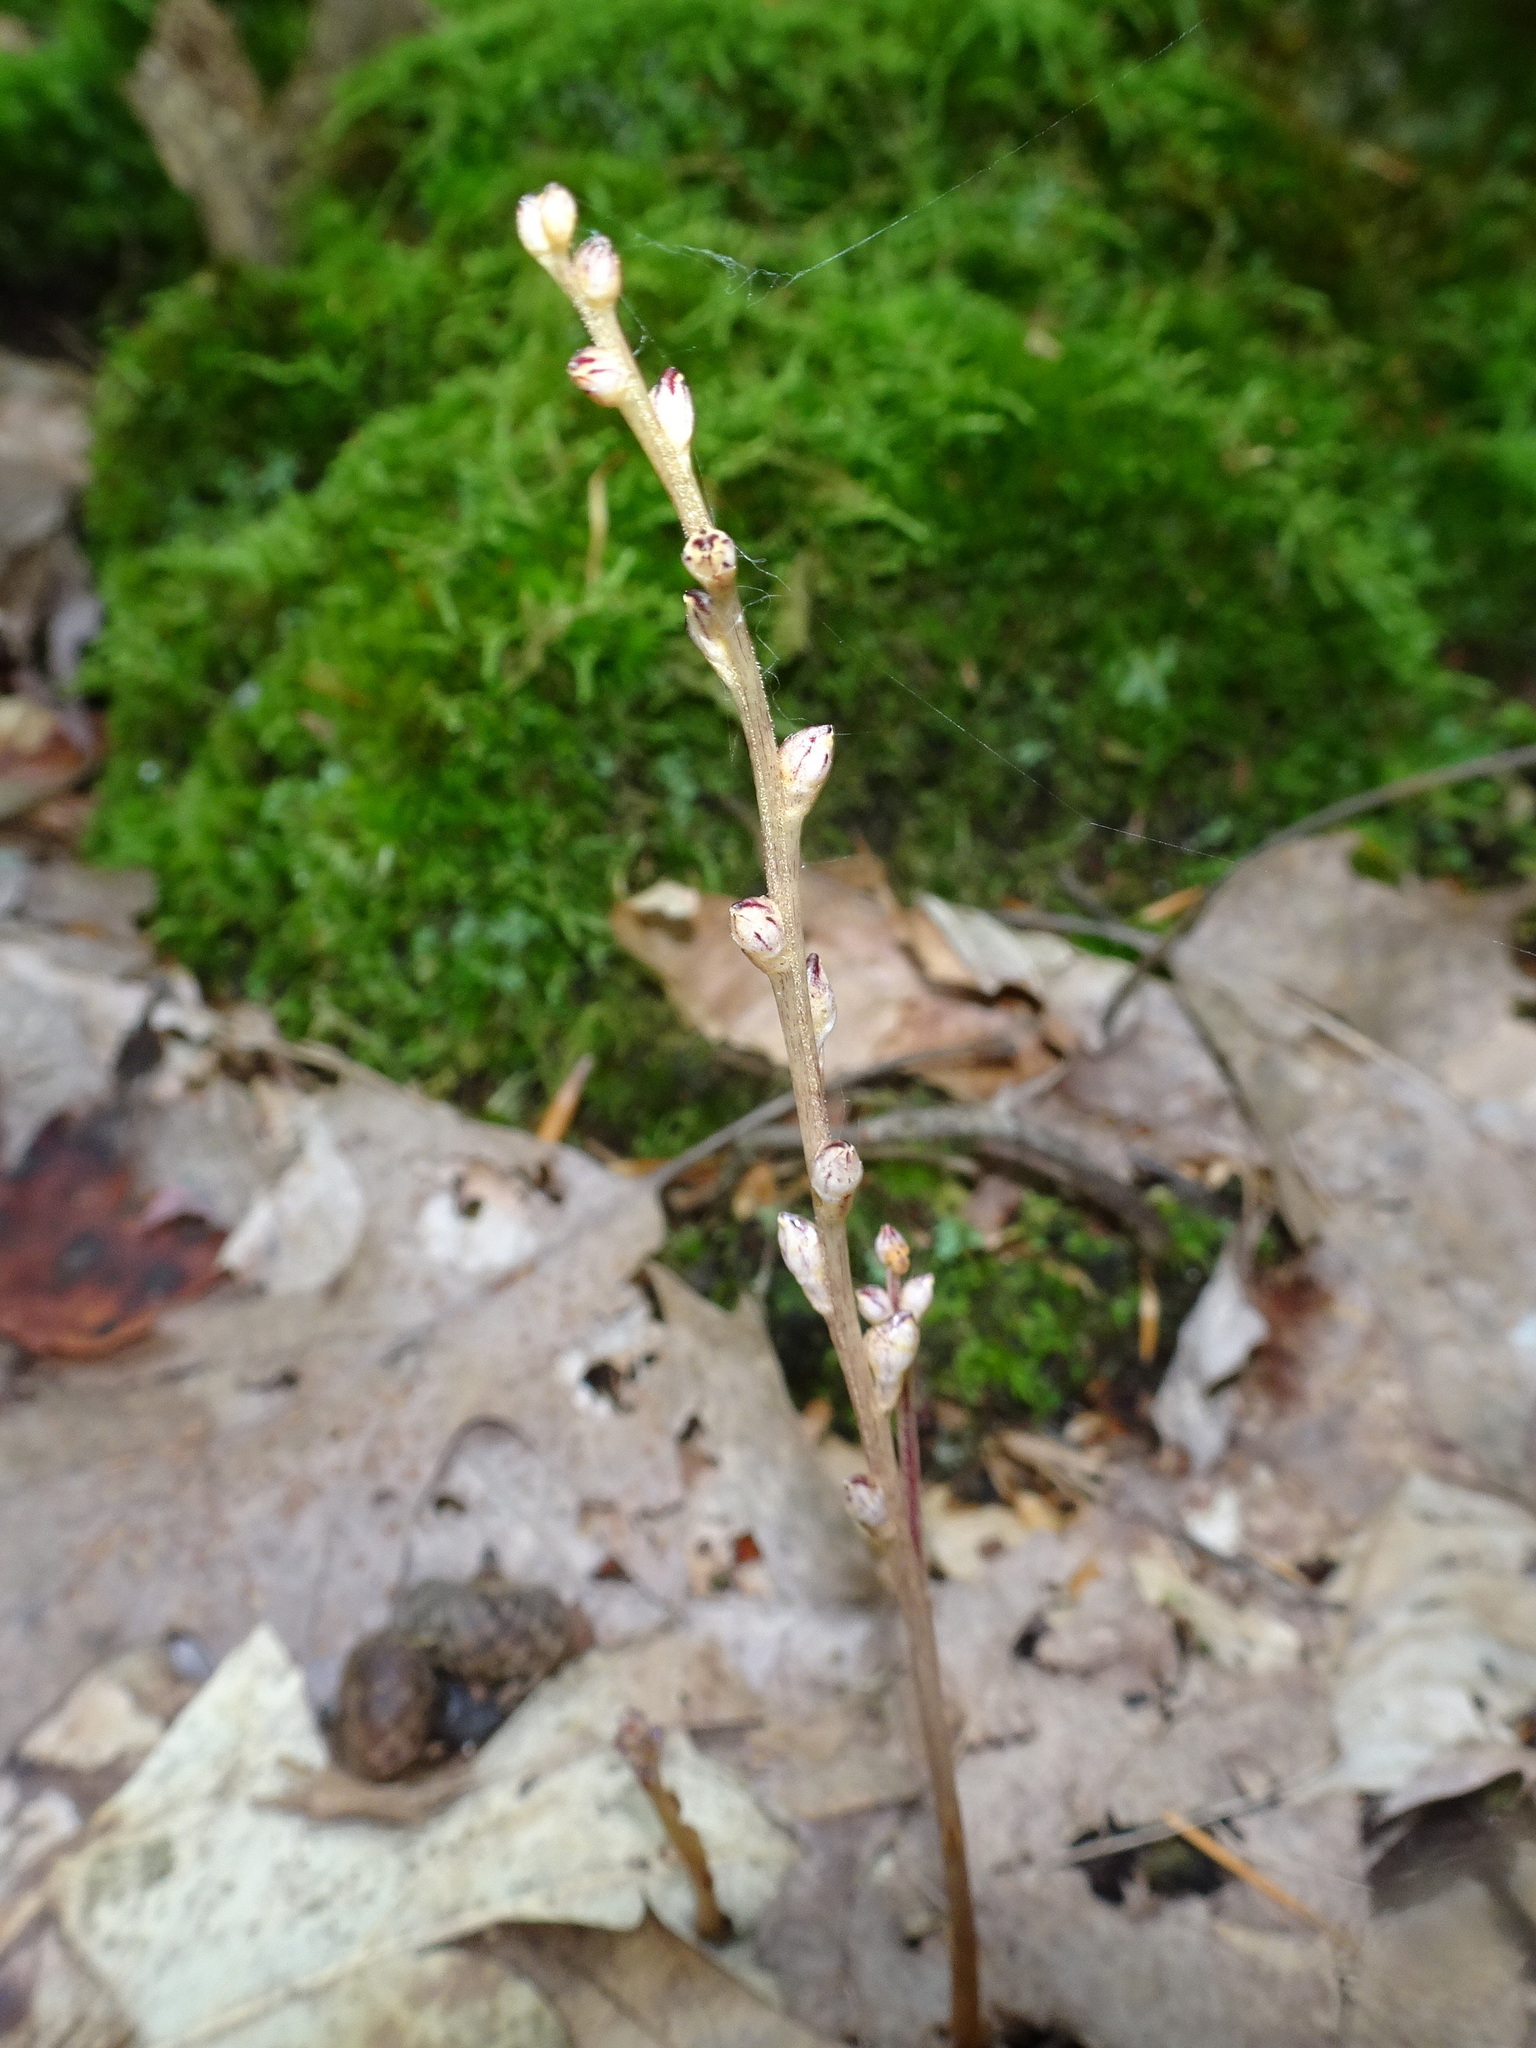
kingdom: Plantae
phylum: Tracheophyta
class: Magnoliopsida
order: Lamiales
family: Orobanchaceae
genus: Epifagus
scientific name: Epifagus virginiana
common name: Beechdrops
